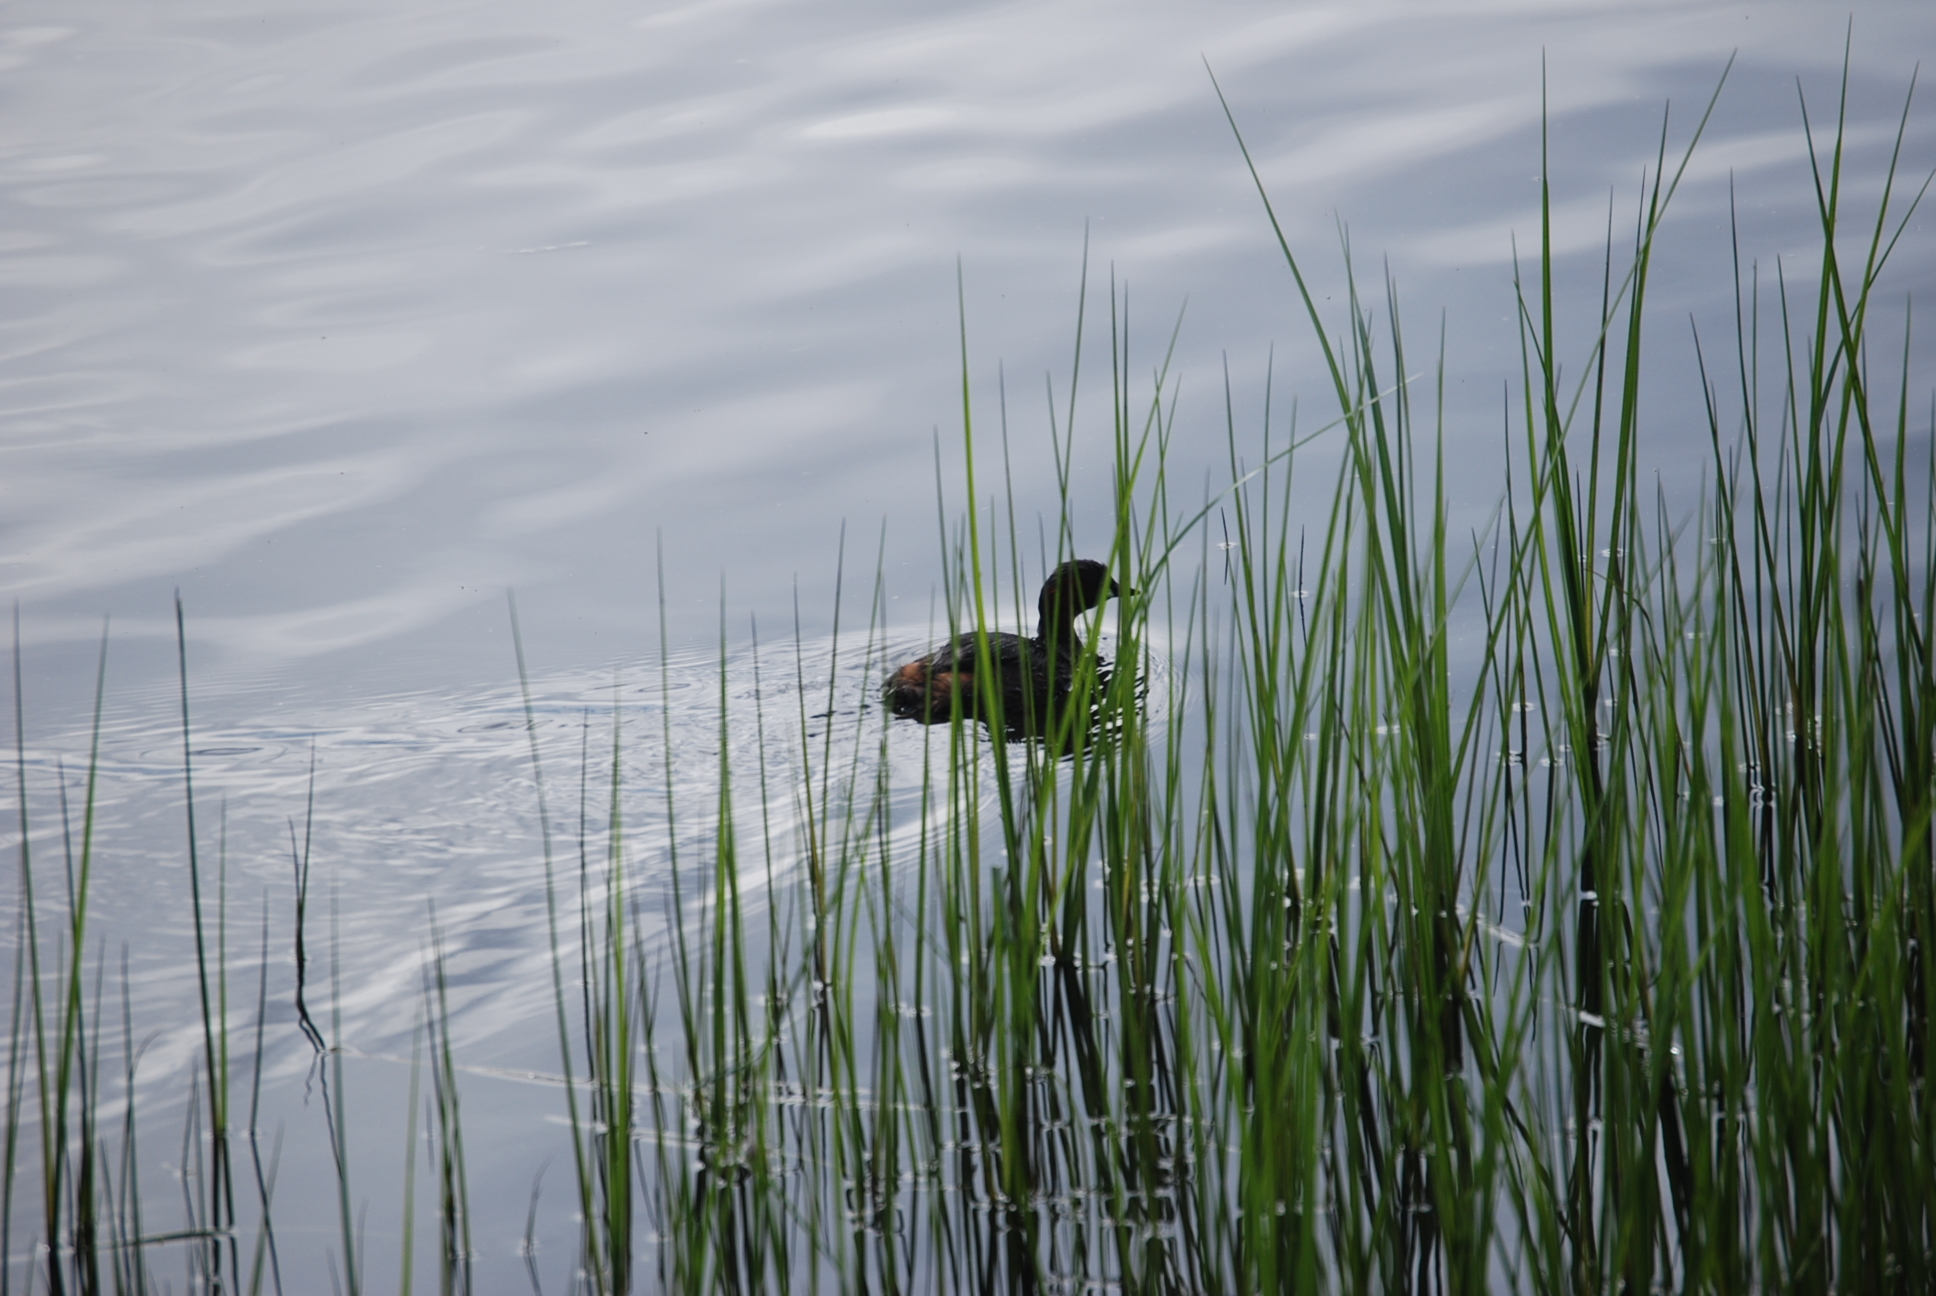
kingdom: Animalia
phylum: Chordata
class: Aves
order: Podicipediformes
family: Podicipedidae
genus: Tachybaptus
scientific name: Tachybaptus ruficollis
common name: Little grebe
